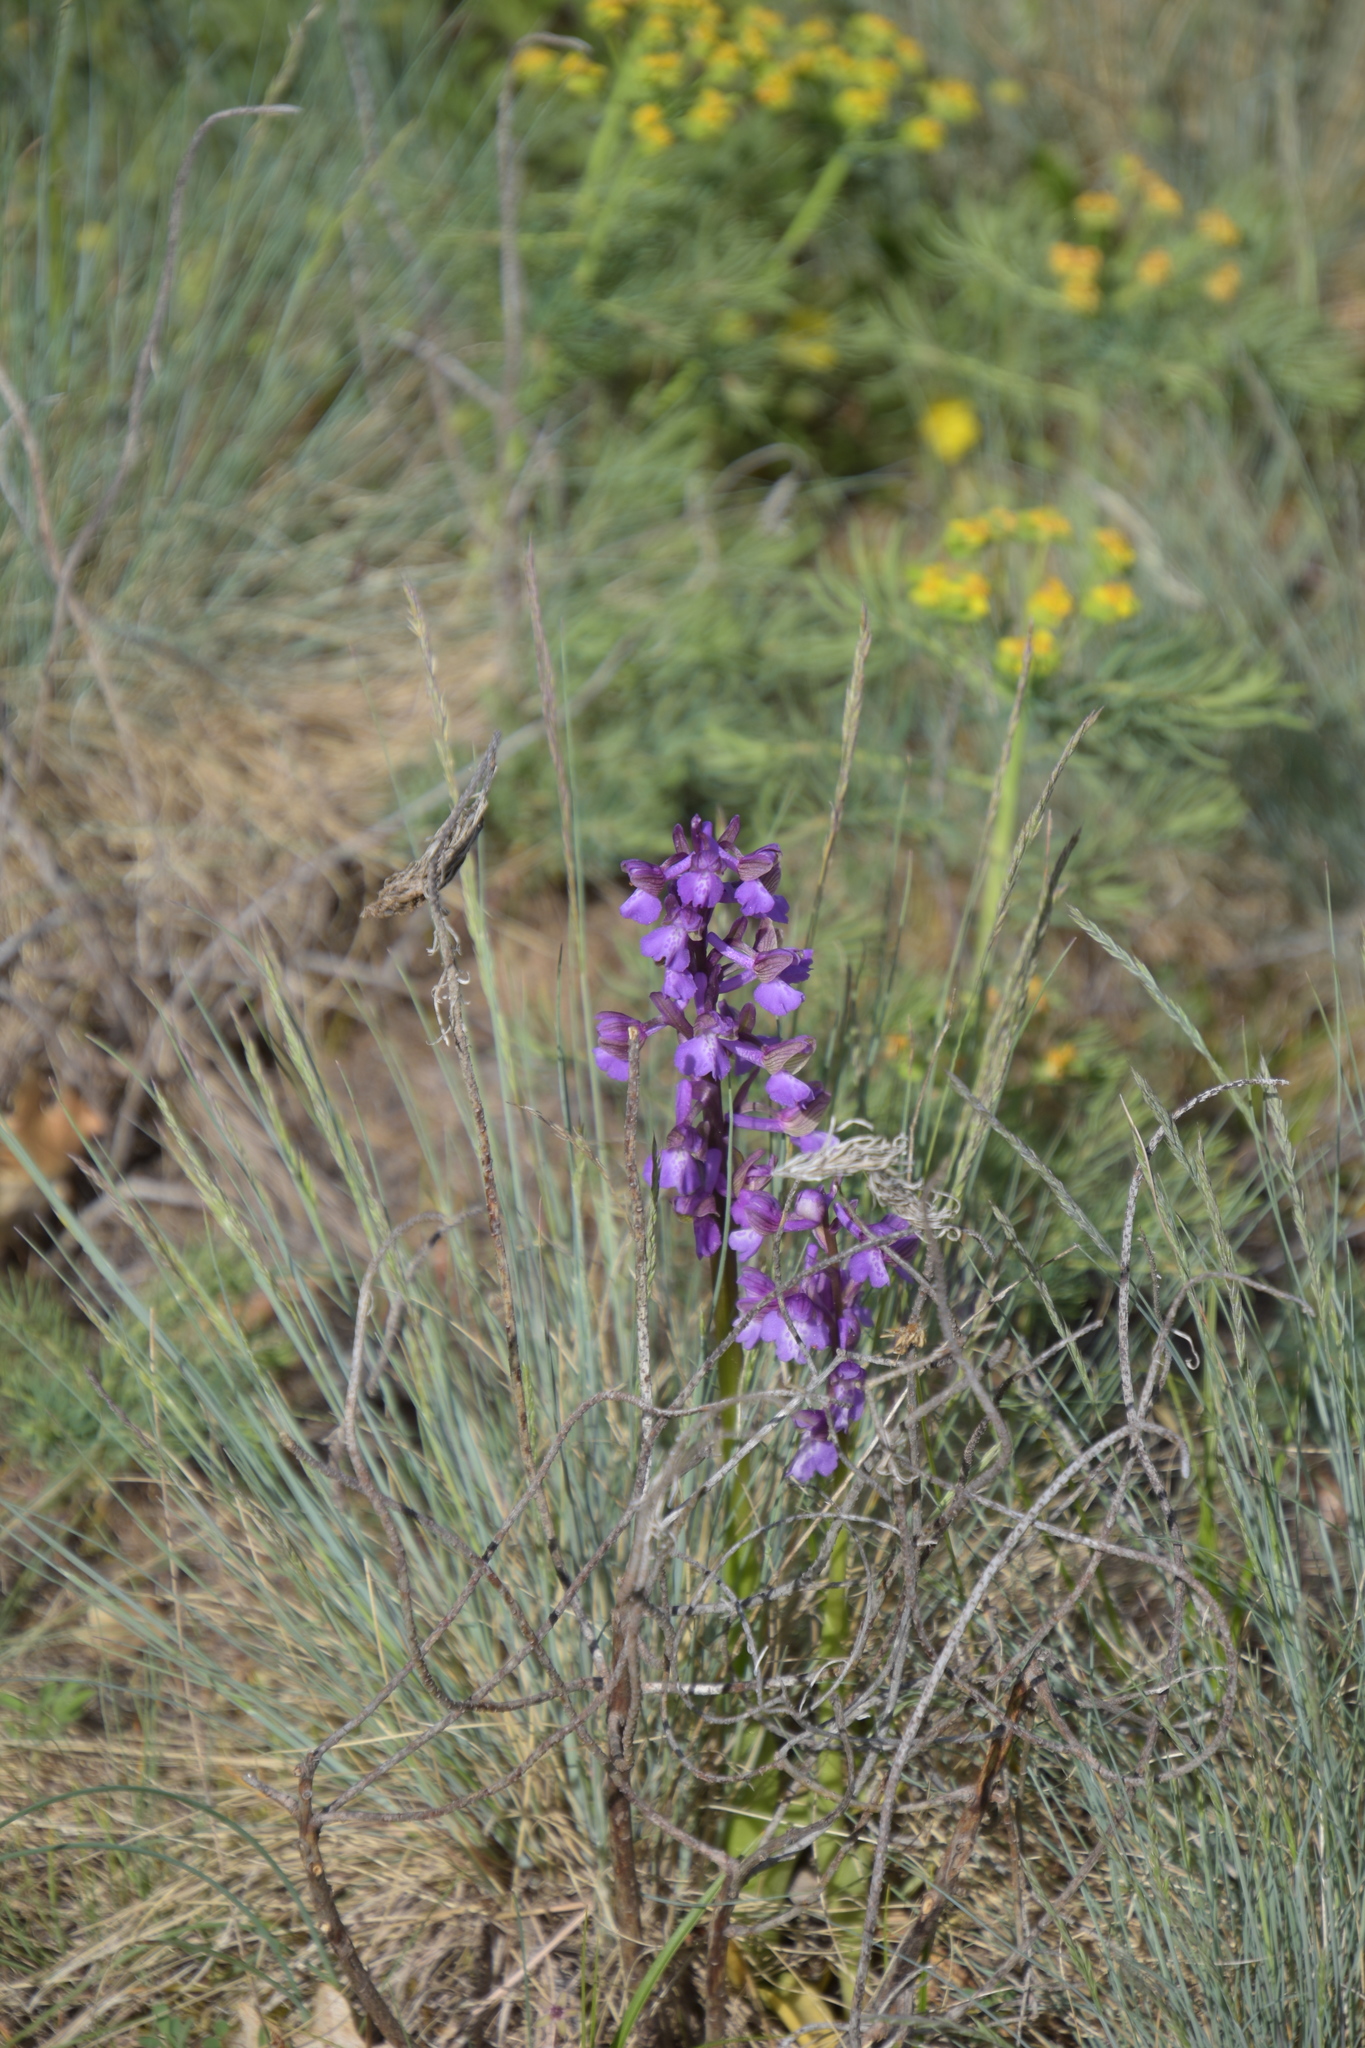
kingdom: Plantae
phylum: Tracheophyta
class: Liliopsida
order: Asparagales
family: Orchidaceae
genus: Anacamptis
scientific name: Anacamptis morio
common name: Green-winged orchid
